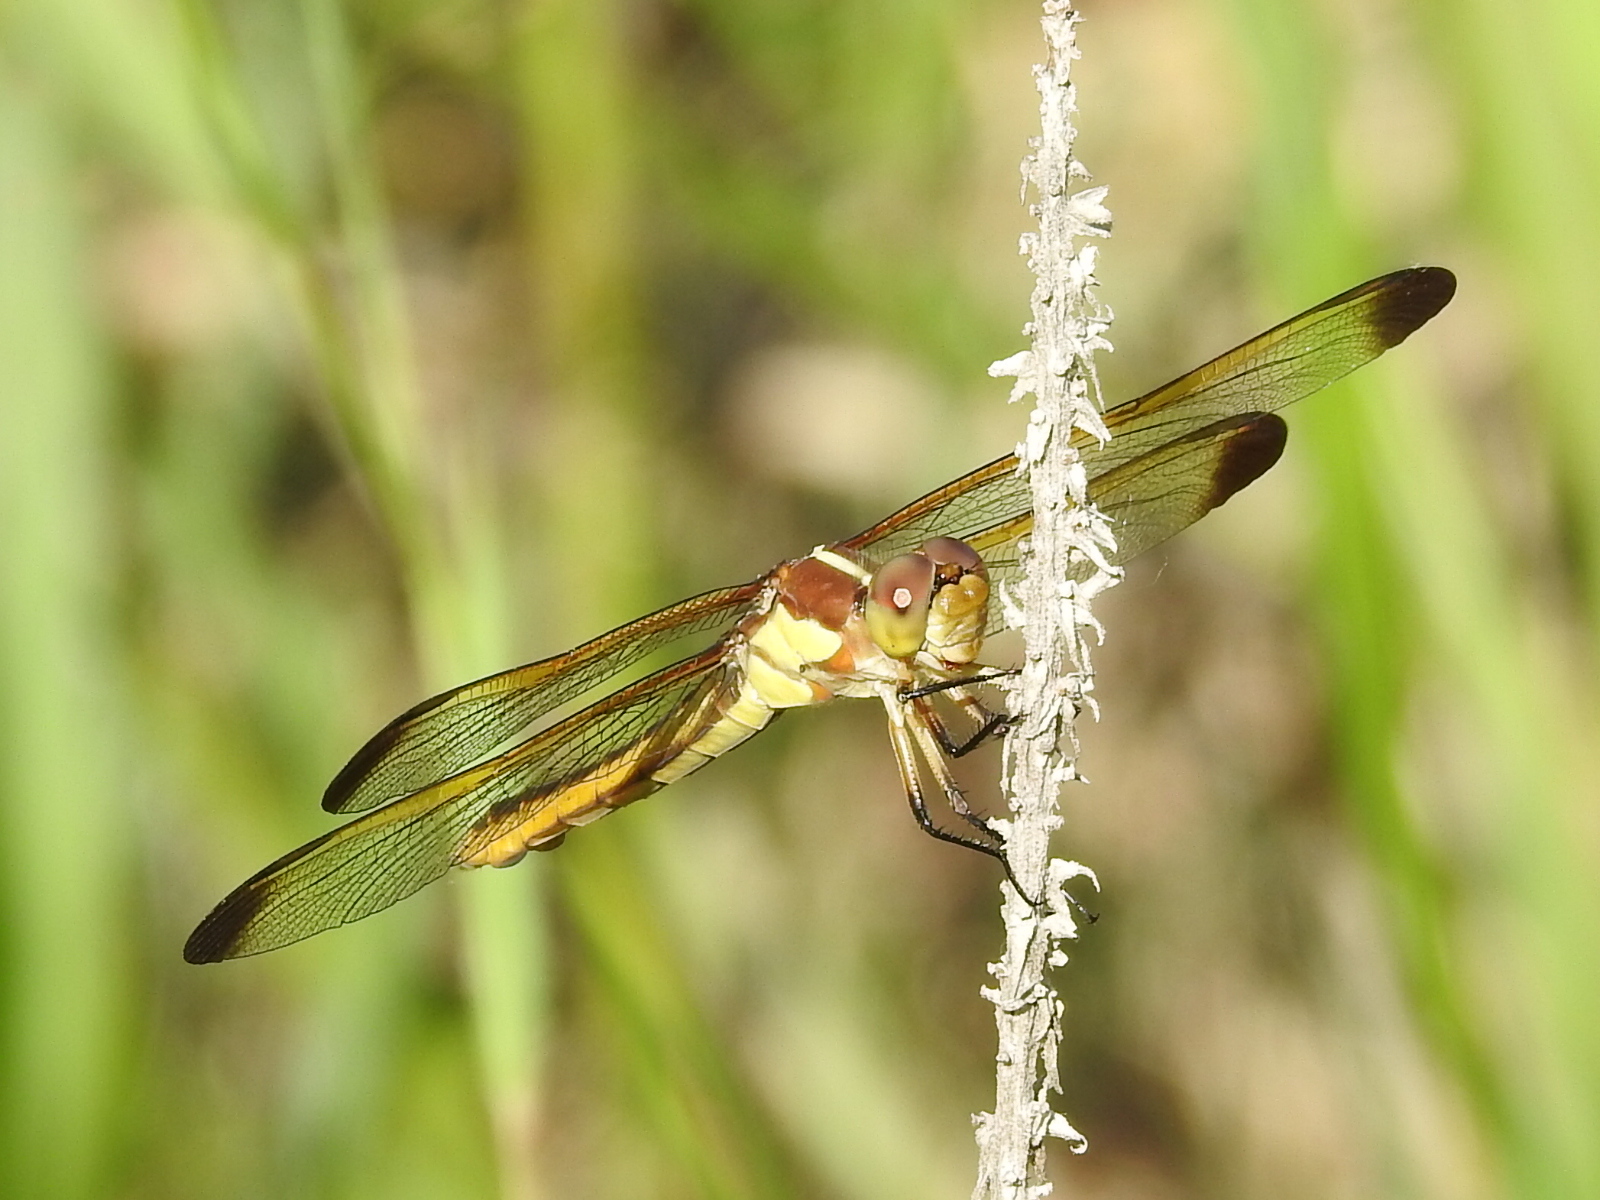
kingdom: Animalia
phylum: Arthropoda
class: Insecta
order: Odonata
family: Libellulidae
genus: Libellula
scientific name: Libellula flavida
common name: Yellow-sided skimmer
